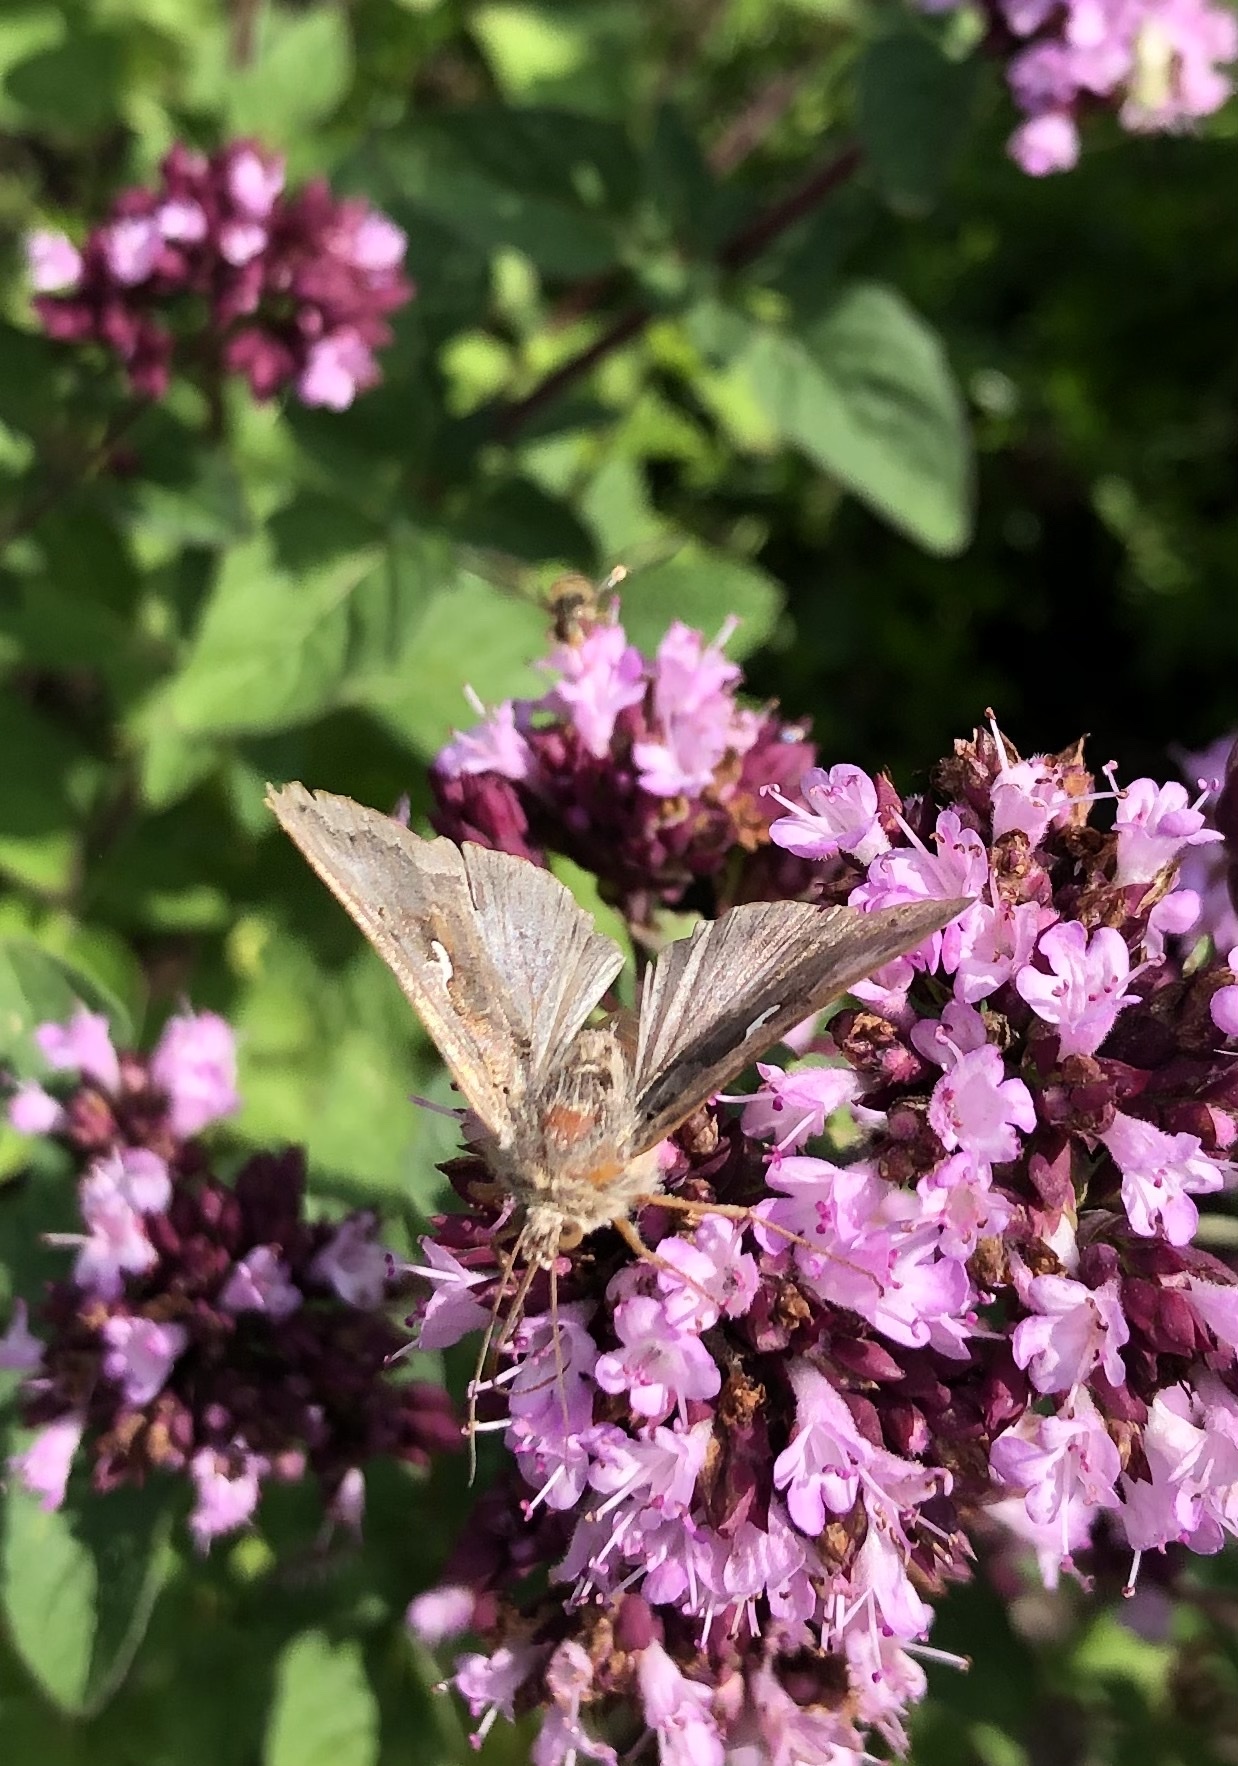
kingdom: Animalia
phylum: Arthropoda
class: Insecta
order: Lepidoptera
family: Noctuidae
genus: Autographa
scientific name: Autographa gamma
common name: Silver y
